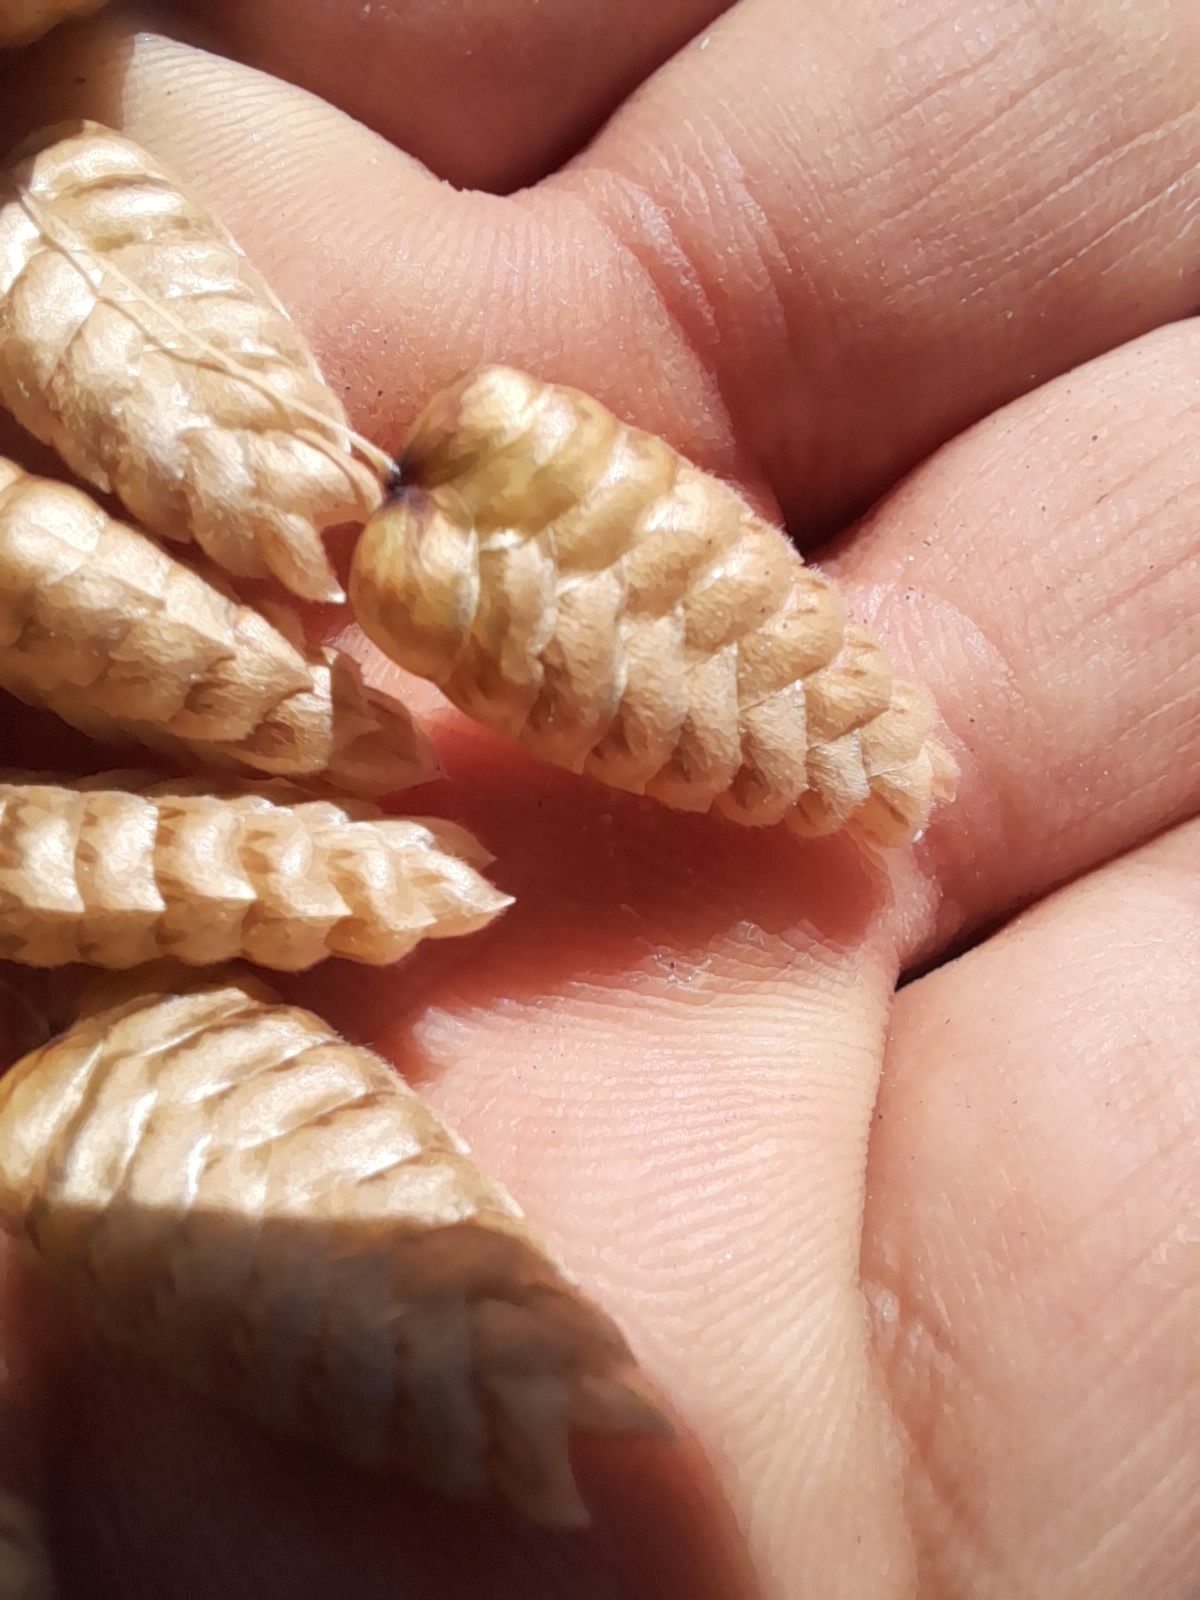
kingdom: Plantae
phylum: Tracheophyta
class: Liliopsida
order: Poales
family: Poaceae
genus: Briza
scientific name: Briza maxima
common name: Big quakinggrass
